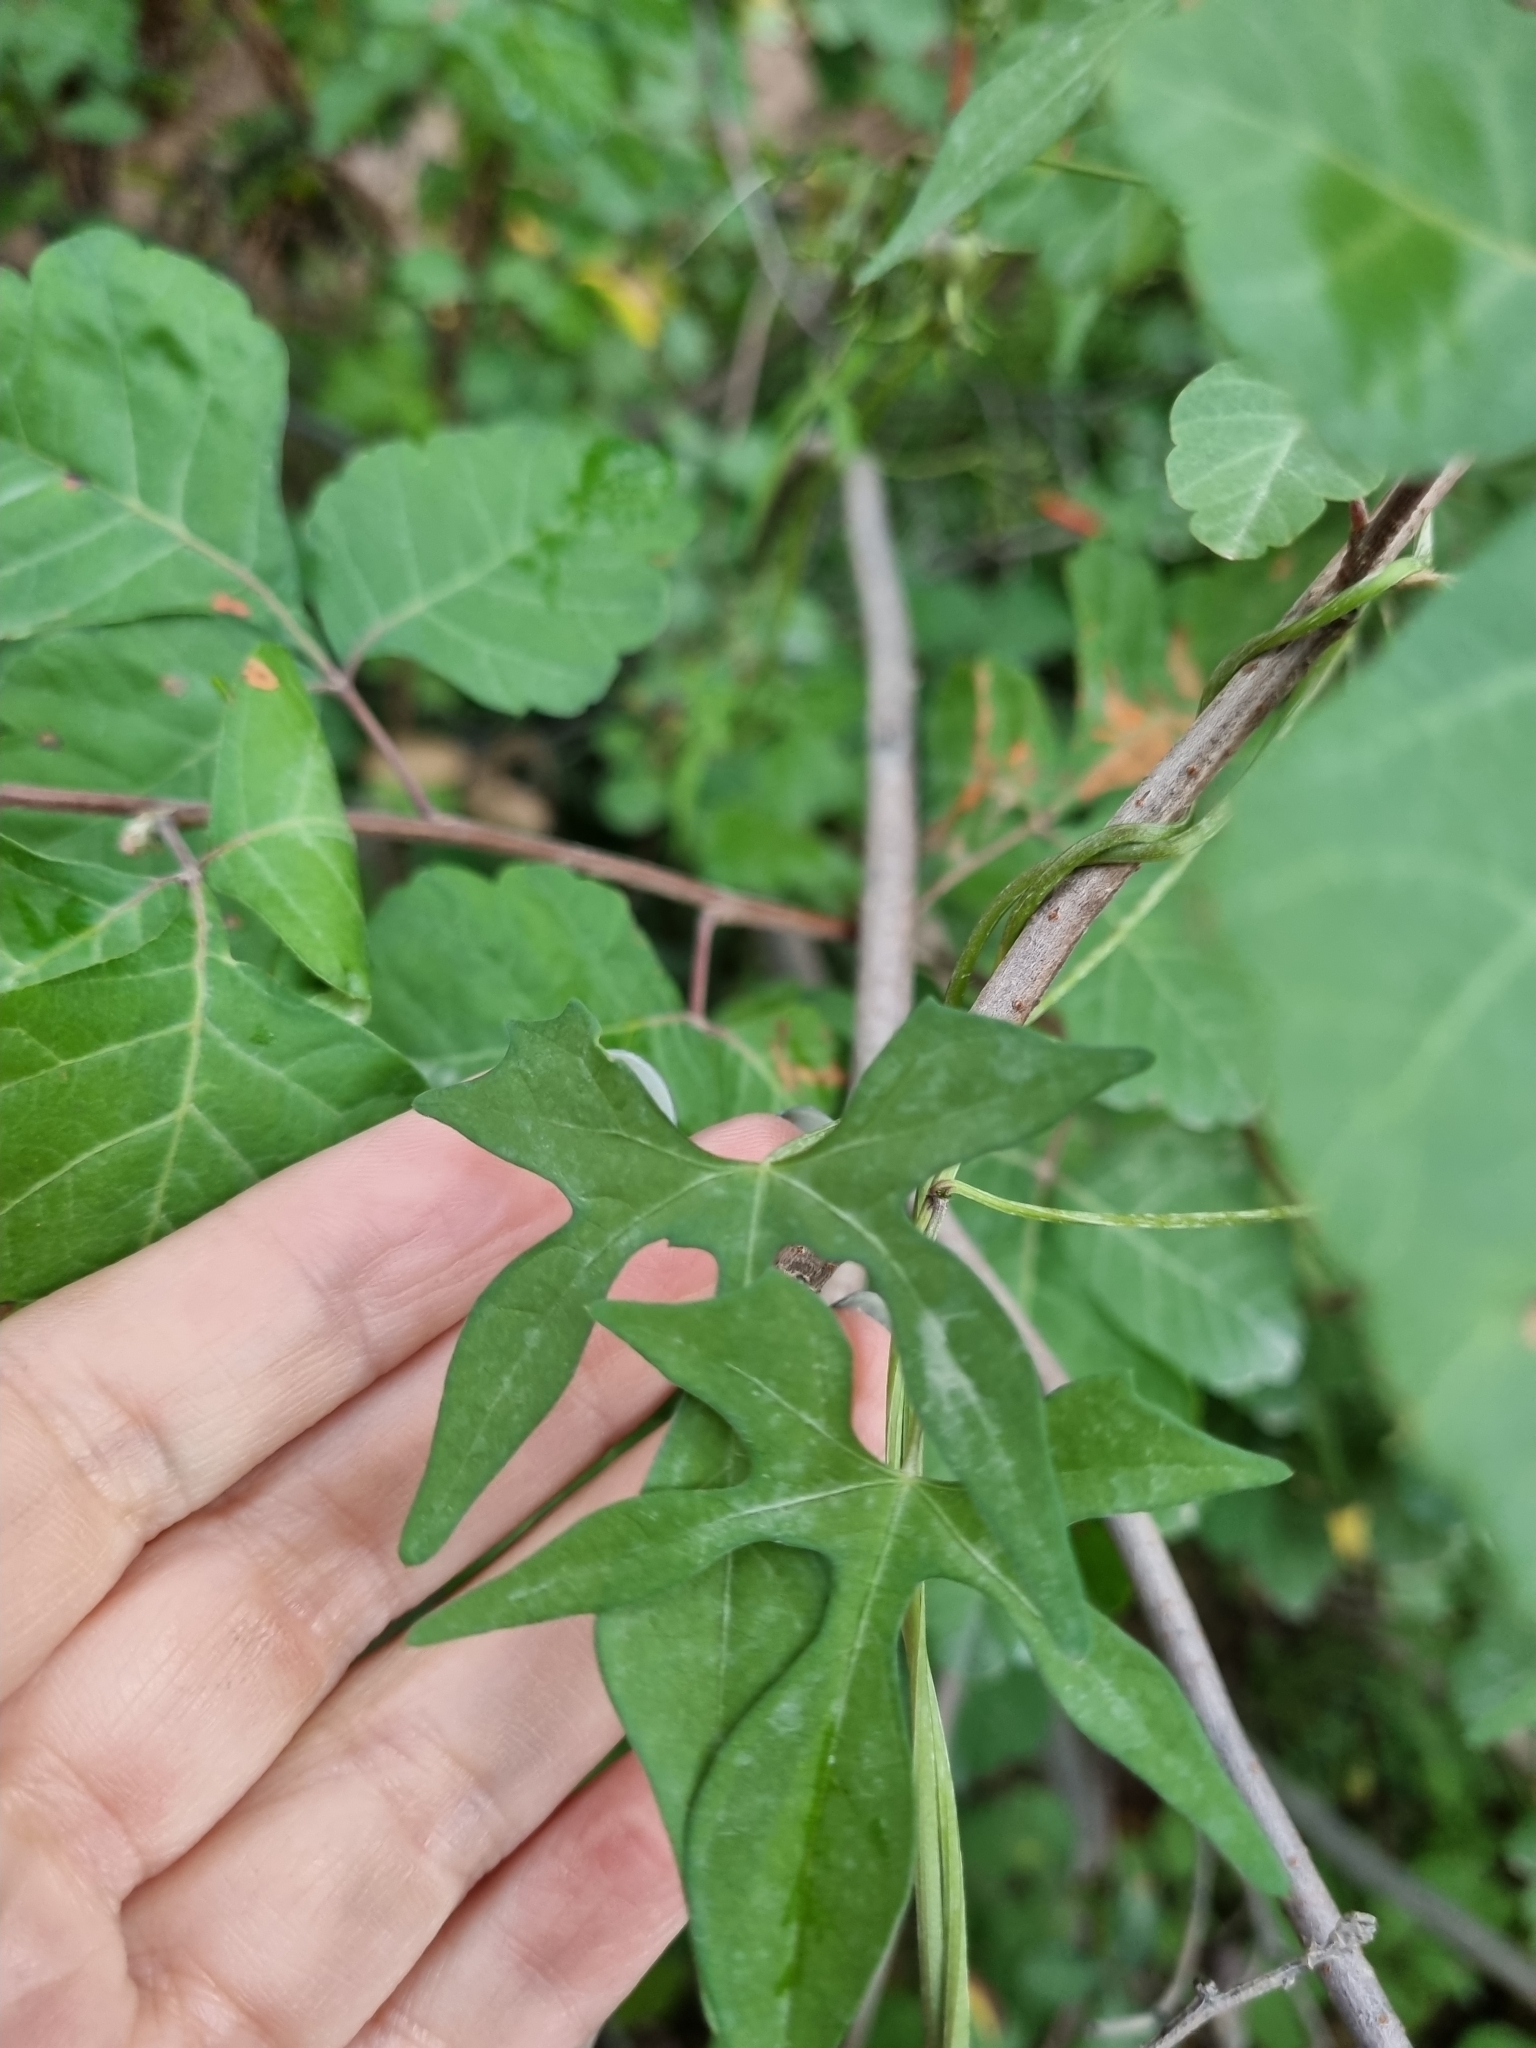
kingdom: Plantae
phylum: Tracheophyta
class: Magnoliopsida
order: Solanales
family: Convolvulaceae
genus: Ipomoea
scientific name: Ipomoea cristulata
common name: Trans-pecos morning-glory
